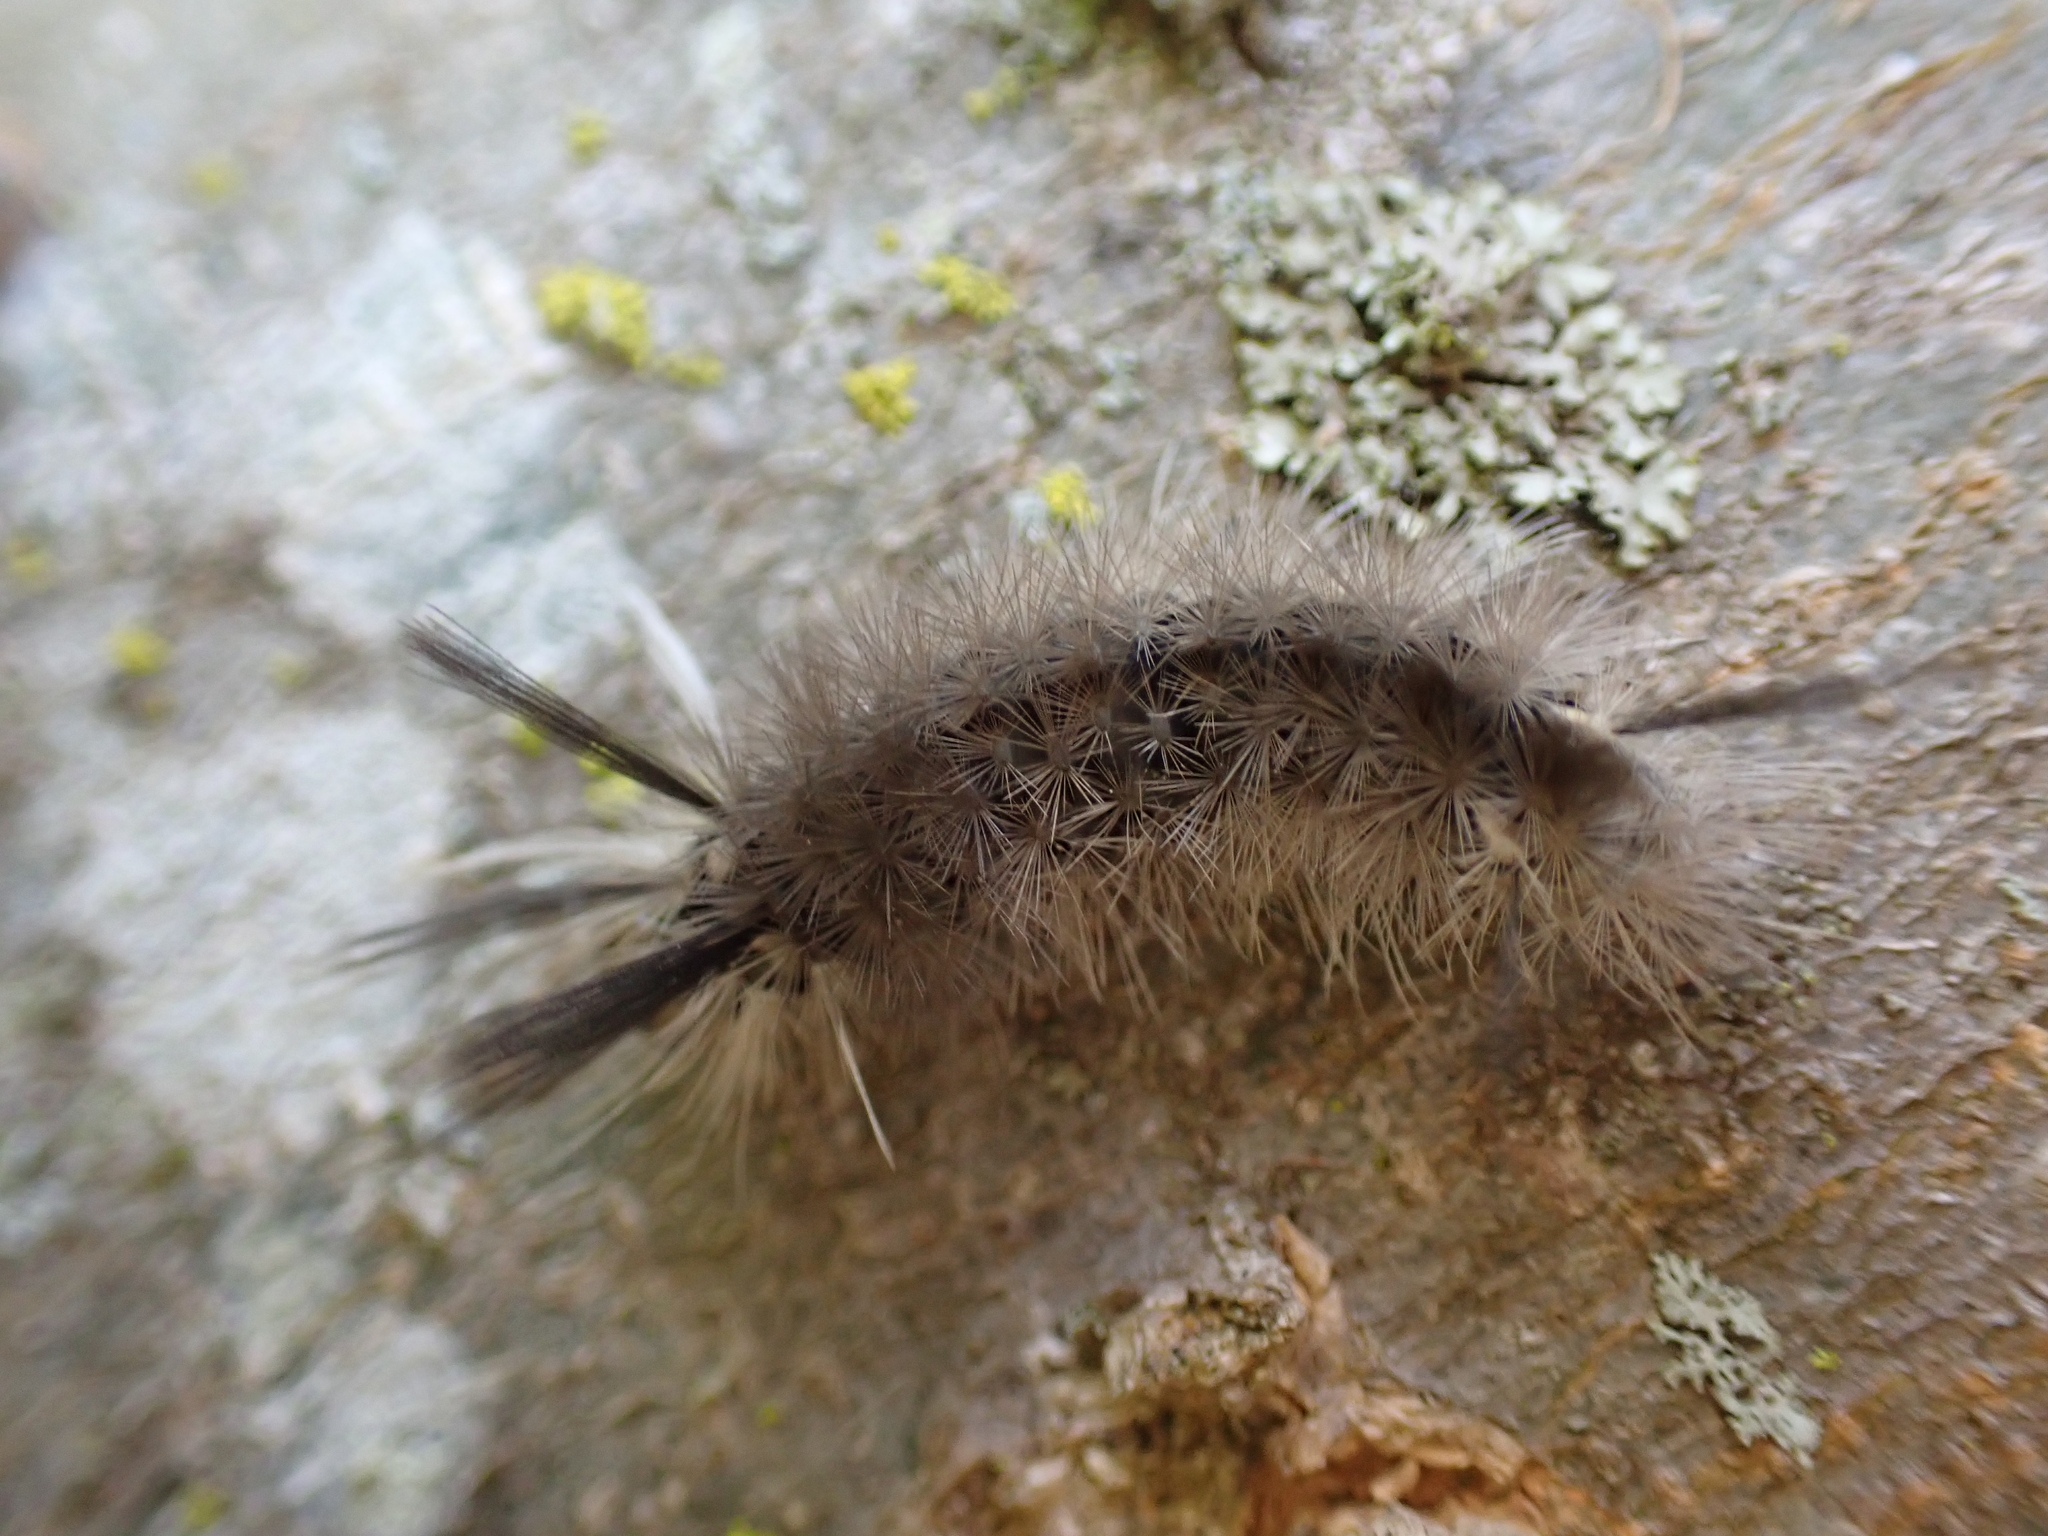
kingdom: Animalia
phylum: Arthropoda
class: Insecta
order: Lepidoptera
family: Erebidae
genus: Halysidota
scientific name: Halysidota tessellaris
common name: Banded tussock moth
